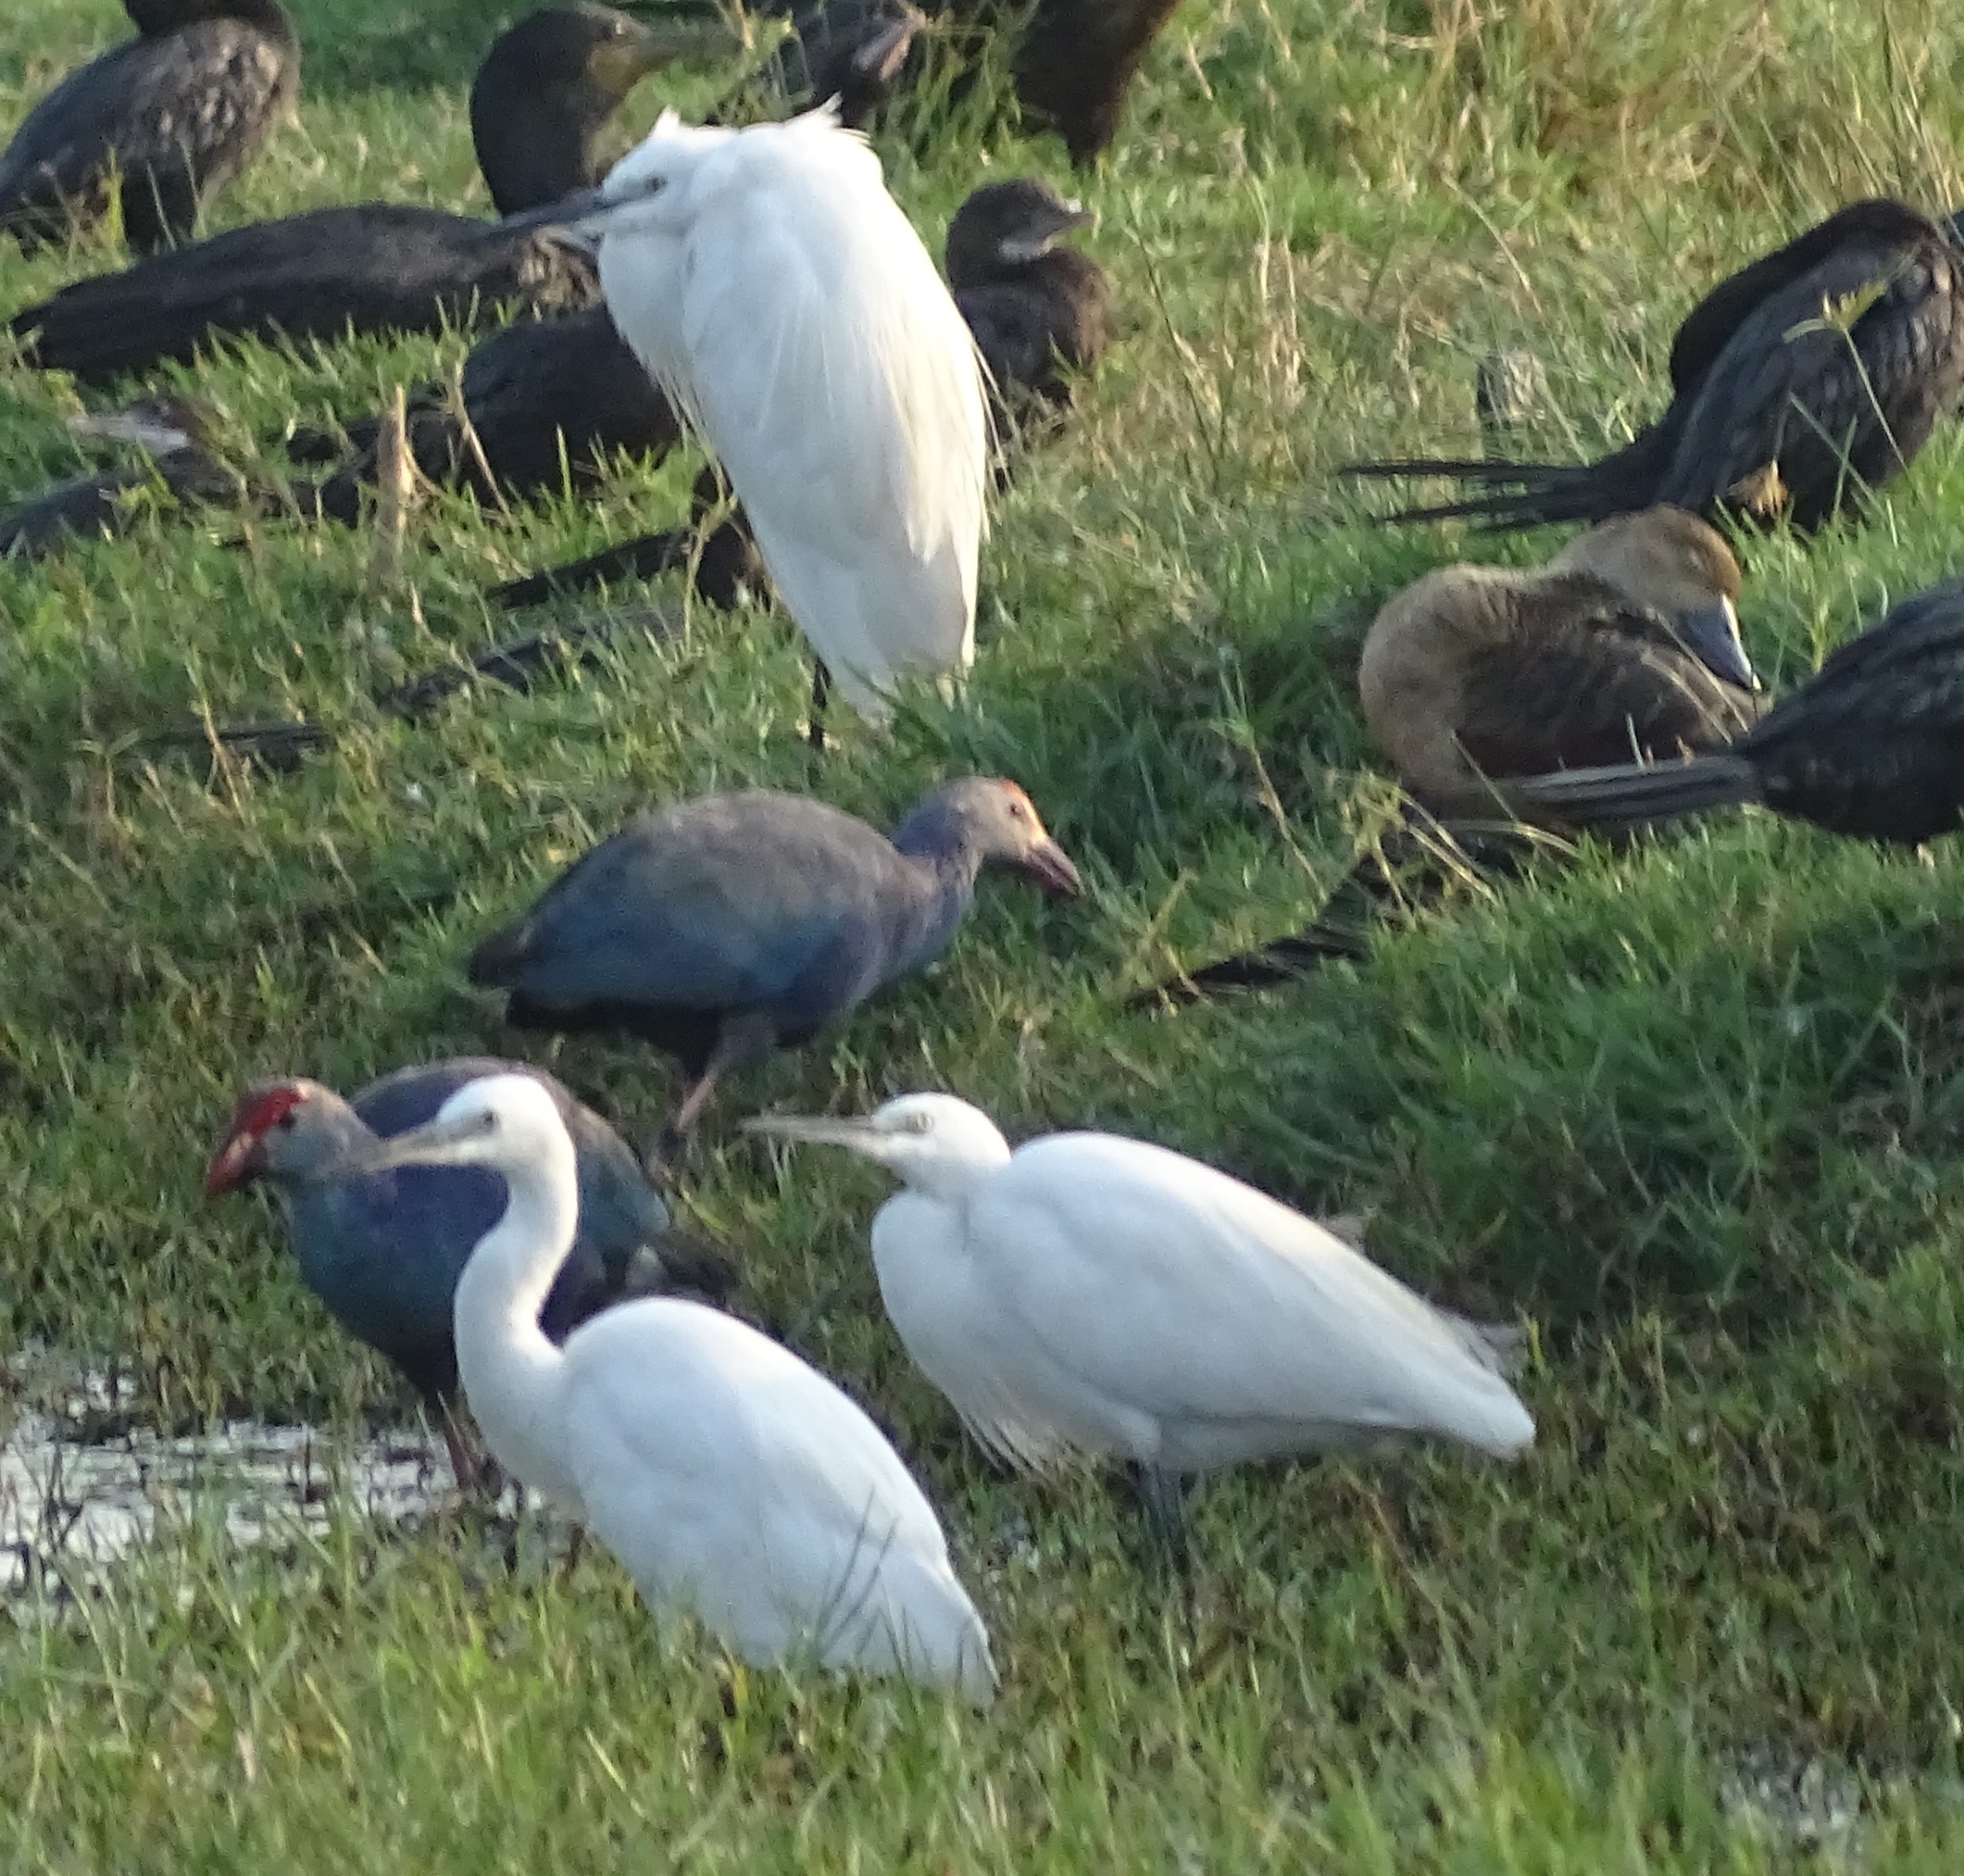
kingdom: Animalia
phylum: Chordata
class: Aves
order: Pelecaniformes
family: Ardeidae
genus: Egretta
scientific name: Egretta garzetta
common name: Little egret
